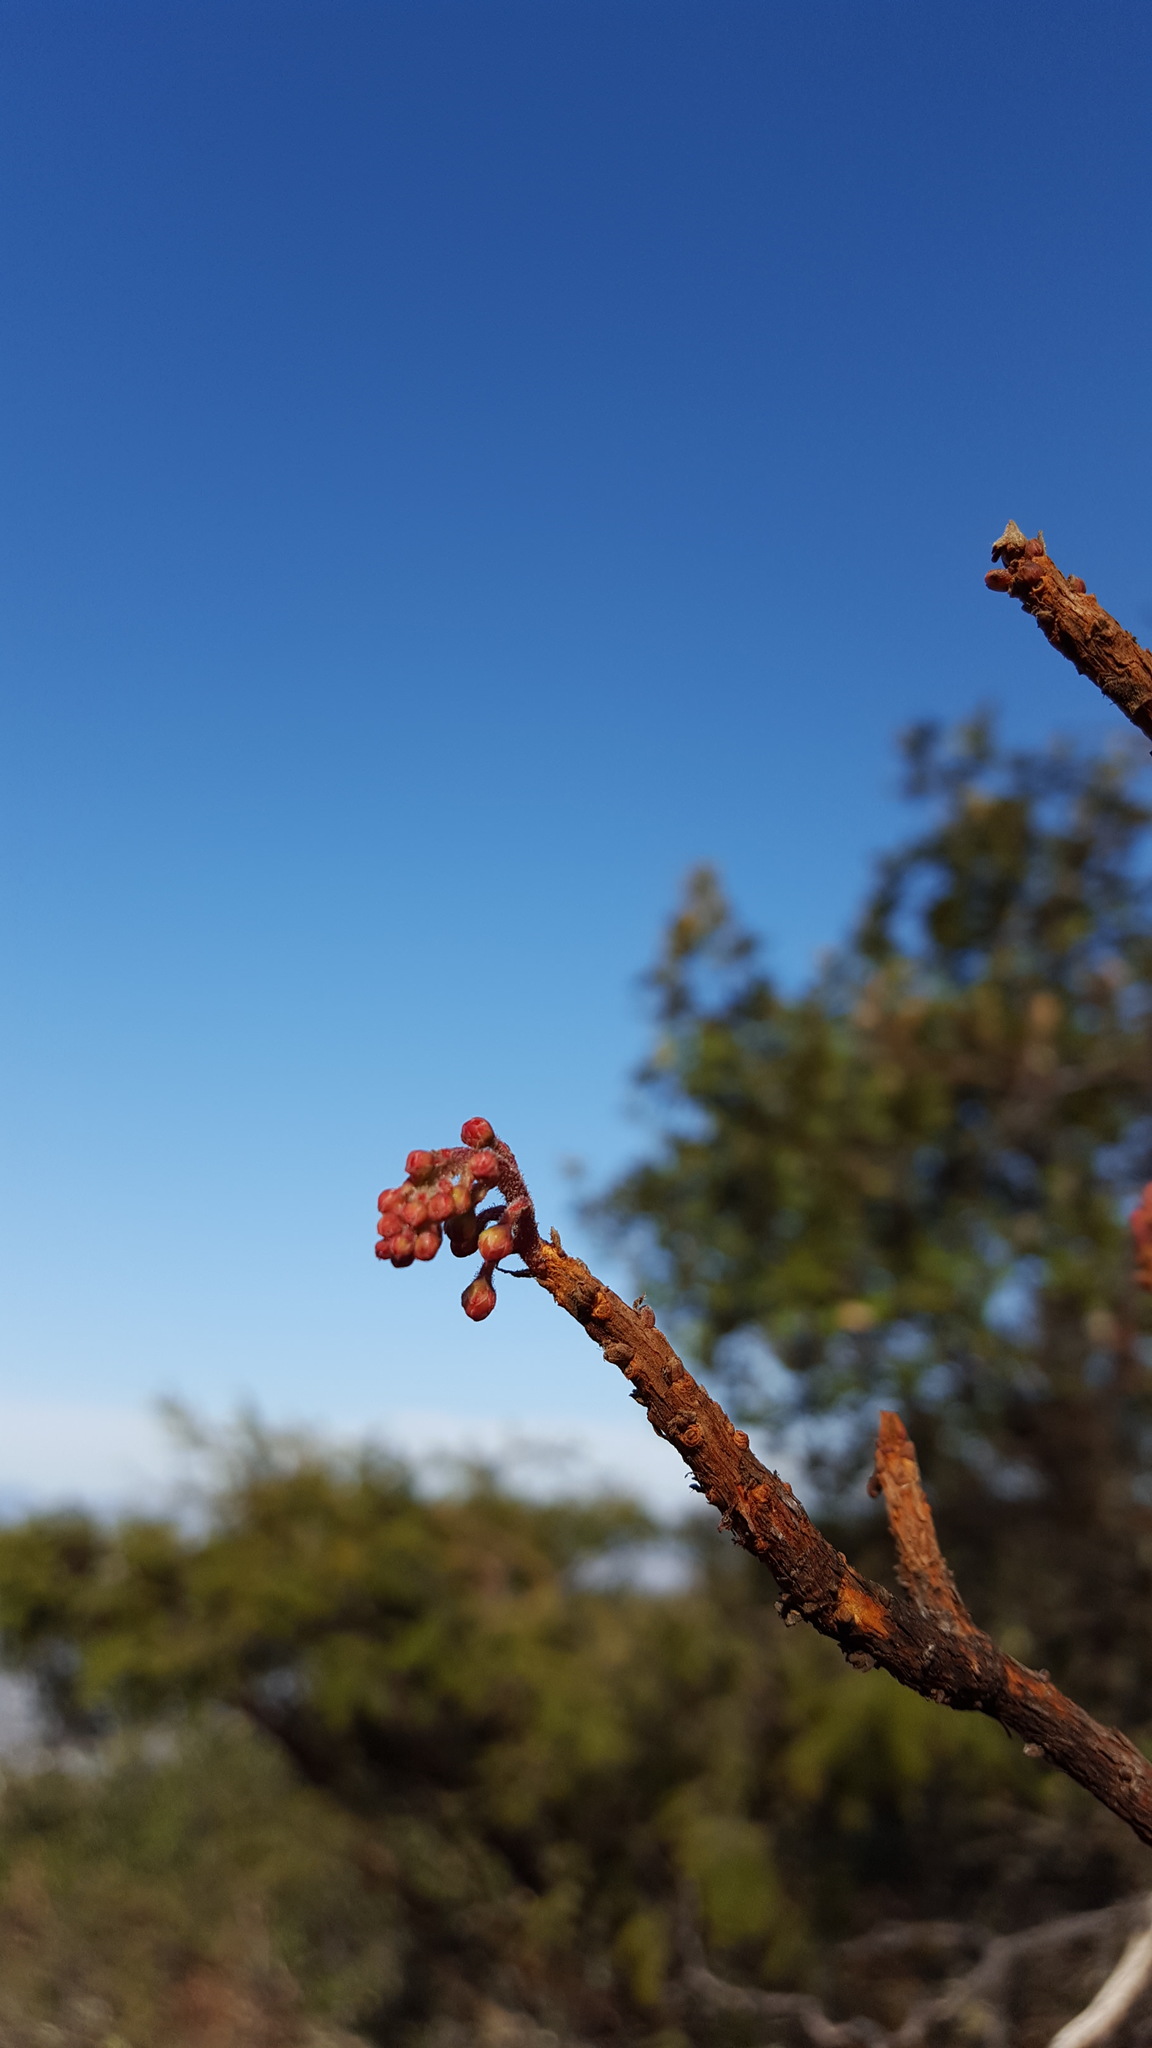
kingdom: Plantae
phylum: Tracheophyta
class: Magnoliopsida
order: Ericales
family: Ericaceae
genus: Comarostaphylis
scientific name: Comarostaphylis glaucescens
